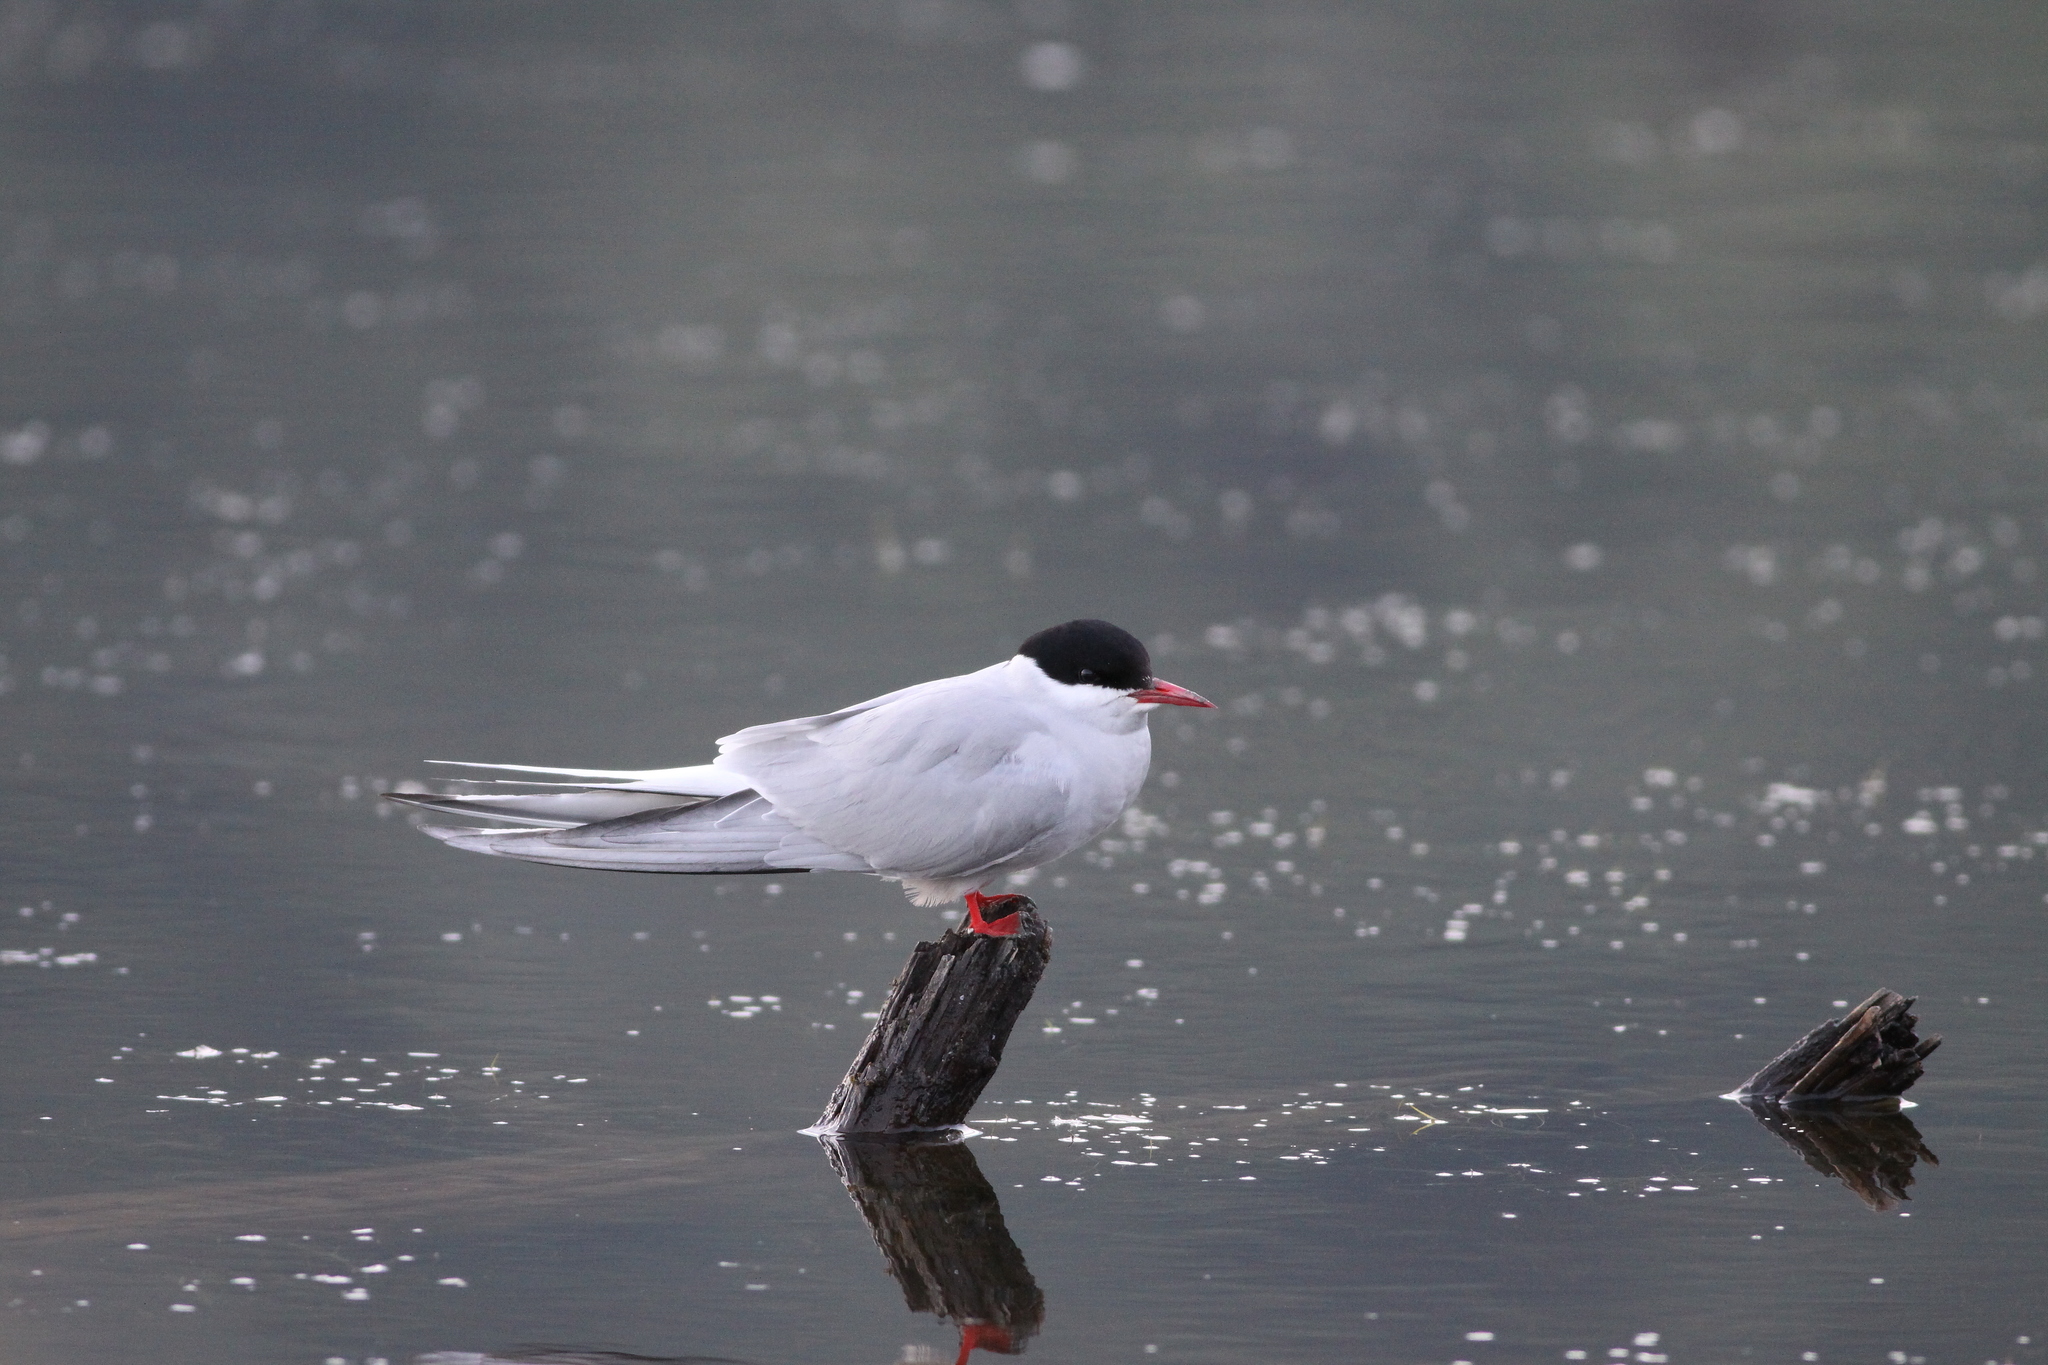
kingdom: Animalia
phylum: Chordata
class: Aves
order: Charadriiformes
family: Laridae
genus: Sterna
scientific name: Sterna paradisaea
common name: Arctic tern
